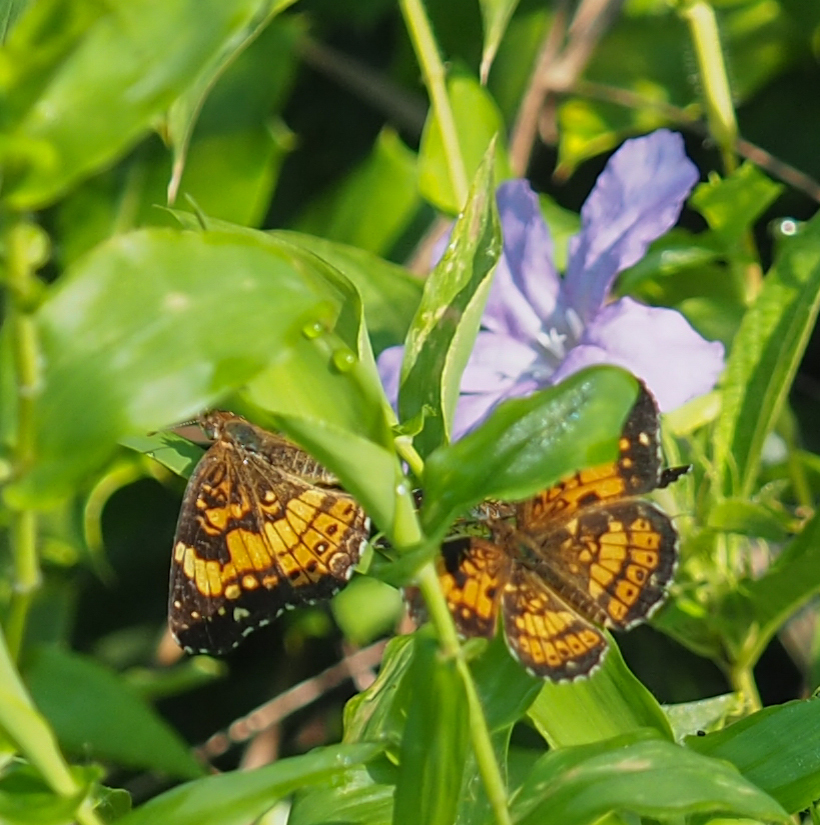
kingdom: Animalia
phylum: Arthropoda
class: Insecta
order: Lepidoptera
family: Nymphalidae
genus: Chlosyne
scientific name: Chlosyne nycteis
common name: Silvery checkerspot
